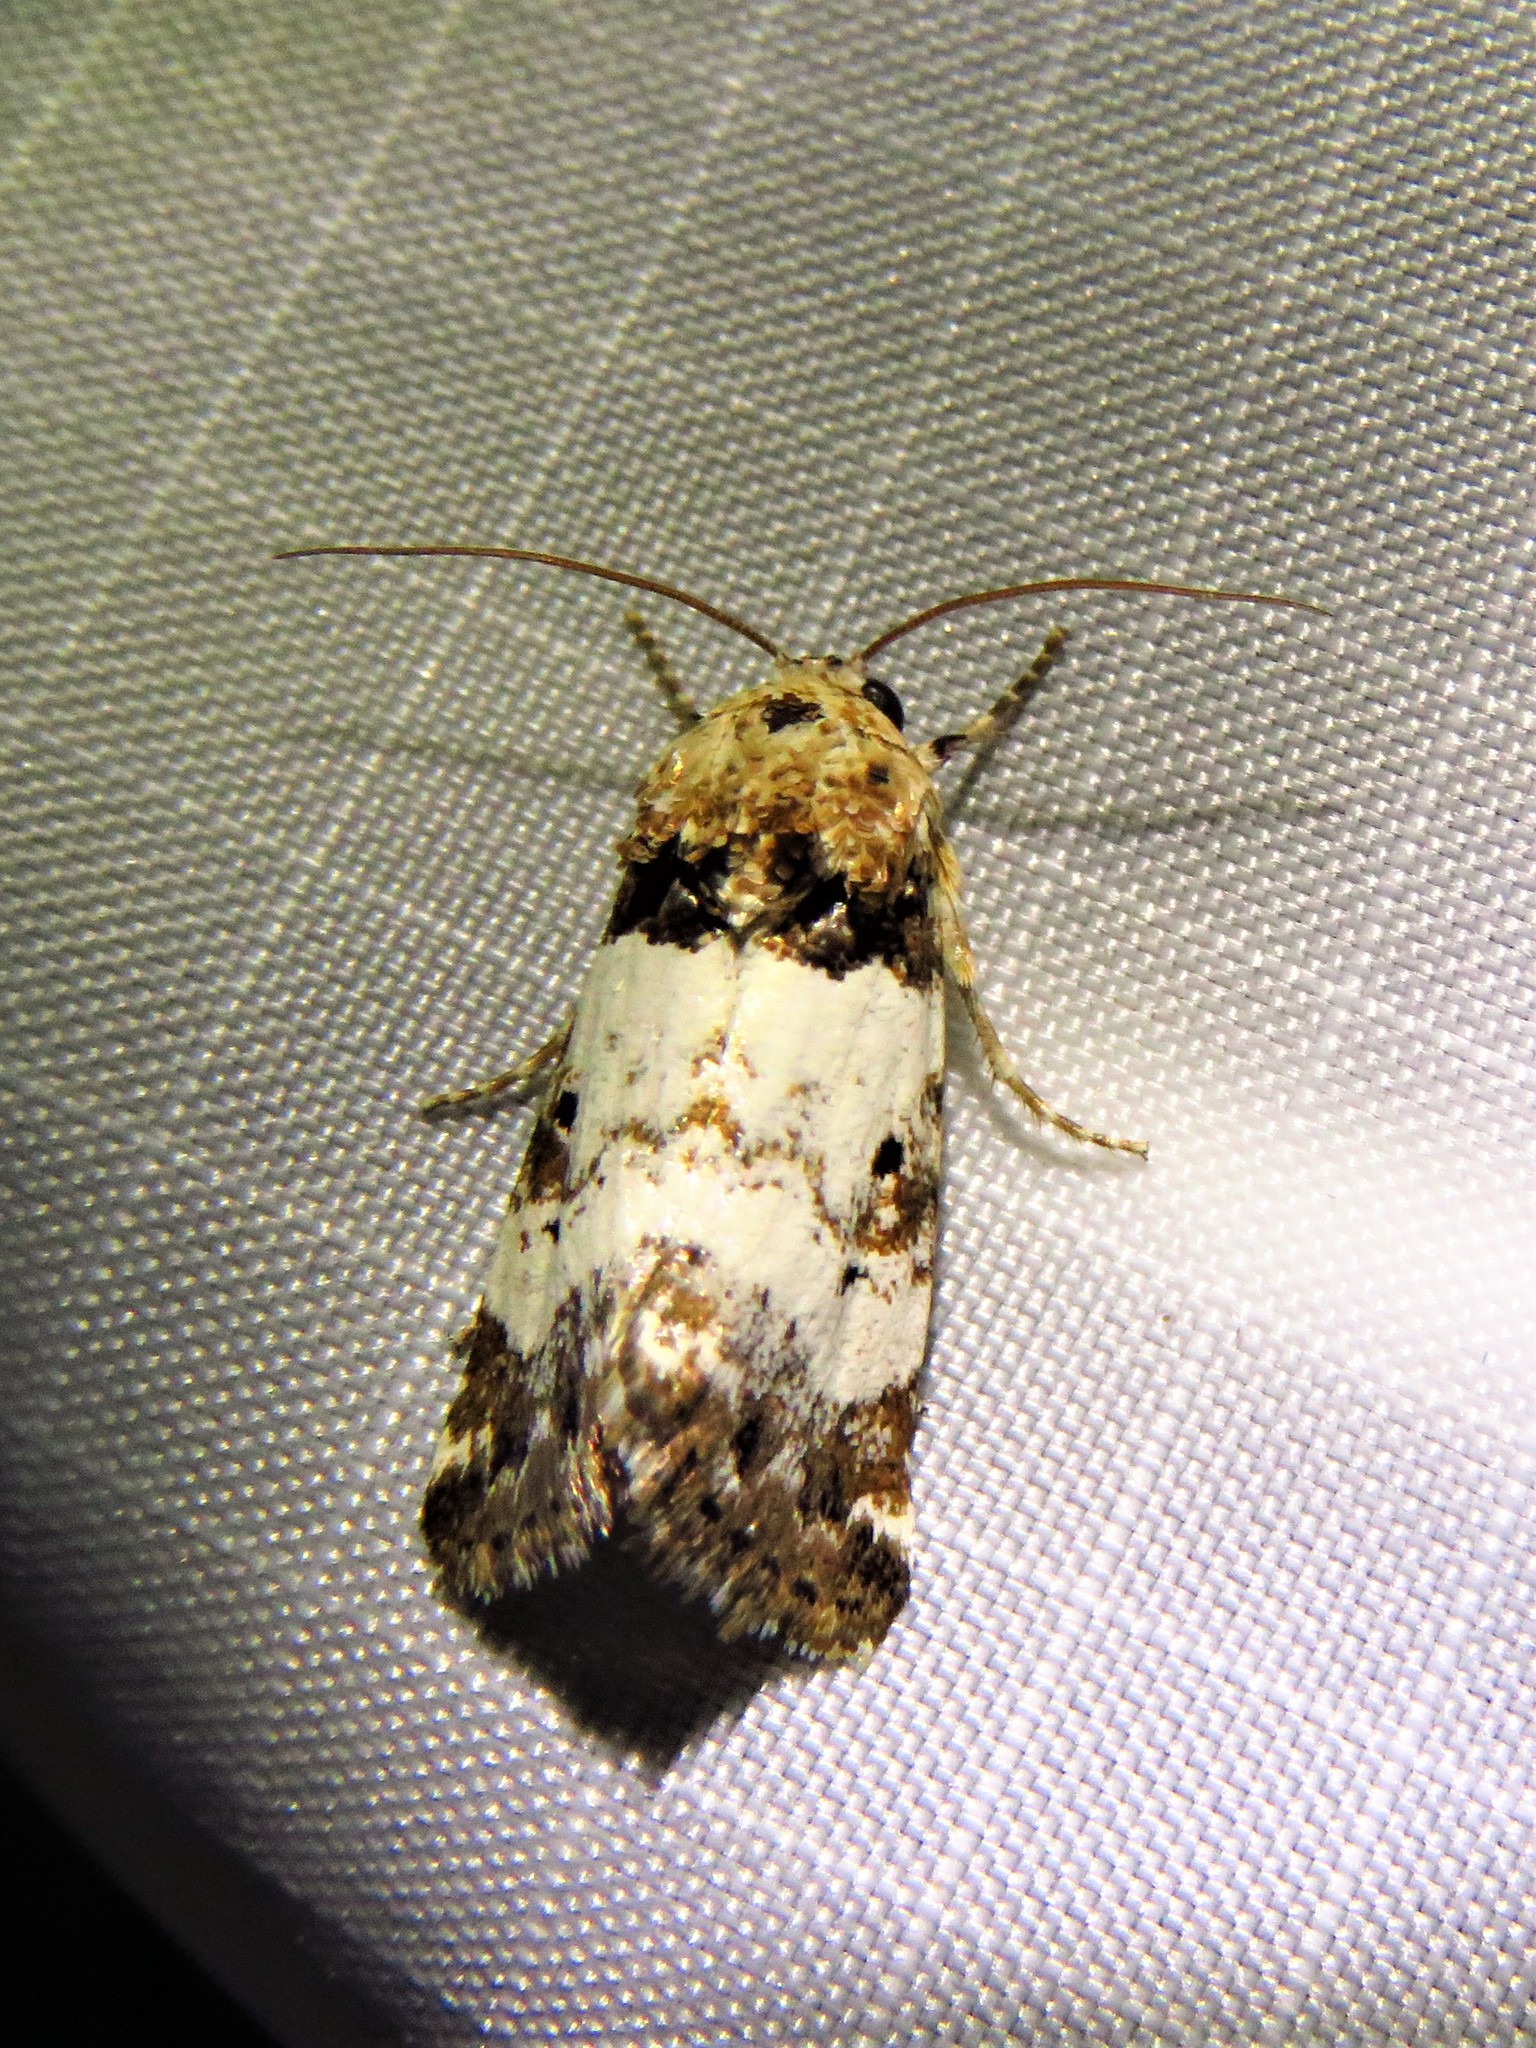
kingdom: Animalia
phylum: Arthropoda
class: Insecta
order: Lepidoptera
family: Noctuidae
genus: Pseudacontia
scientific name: Pseudacontia crustaria
